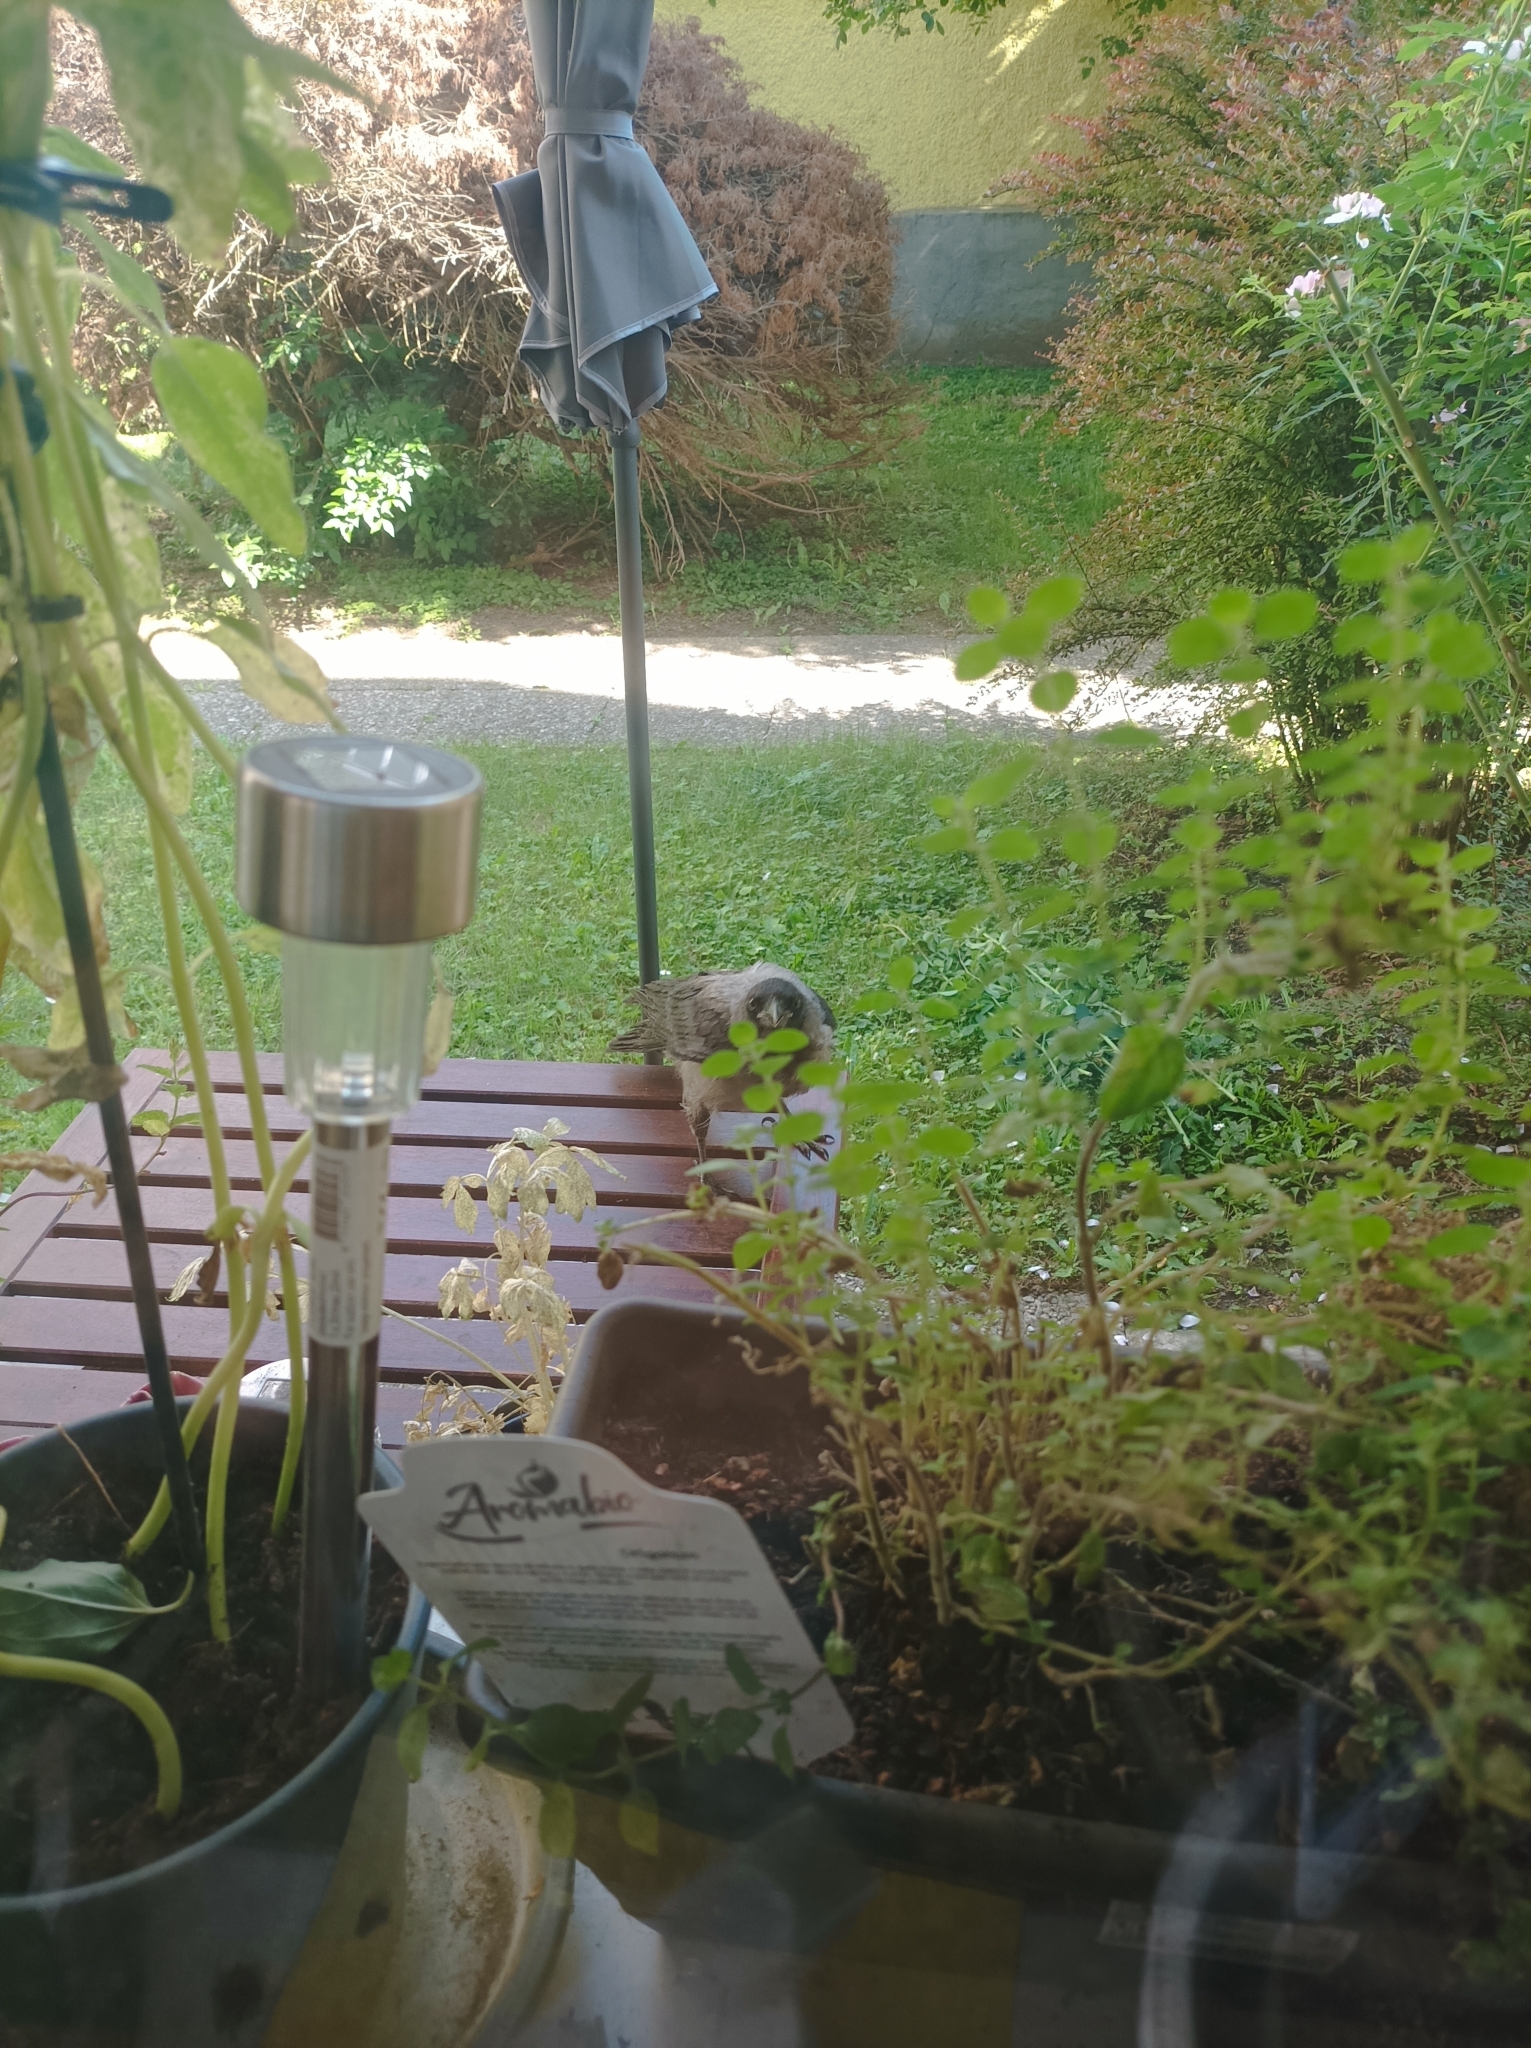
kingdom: Animalia
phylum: Chordata
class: Aves
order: Passeriformes
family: Corvidae
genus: Corvus
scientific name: Corvus cornix
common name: Hooded crow
